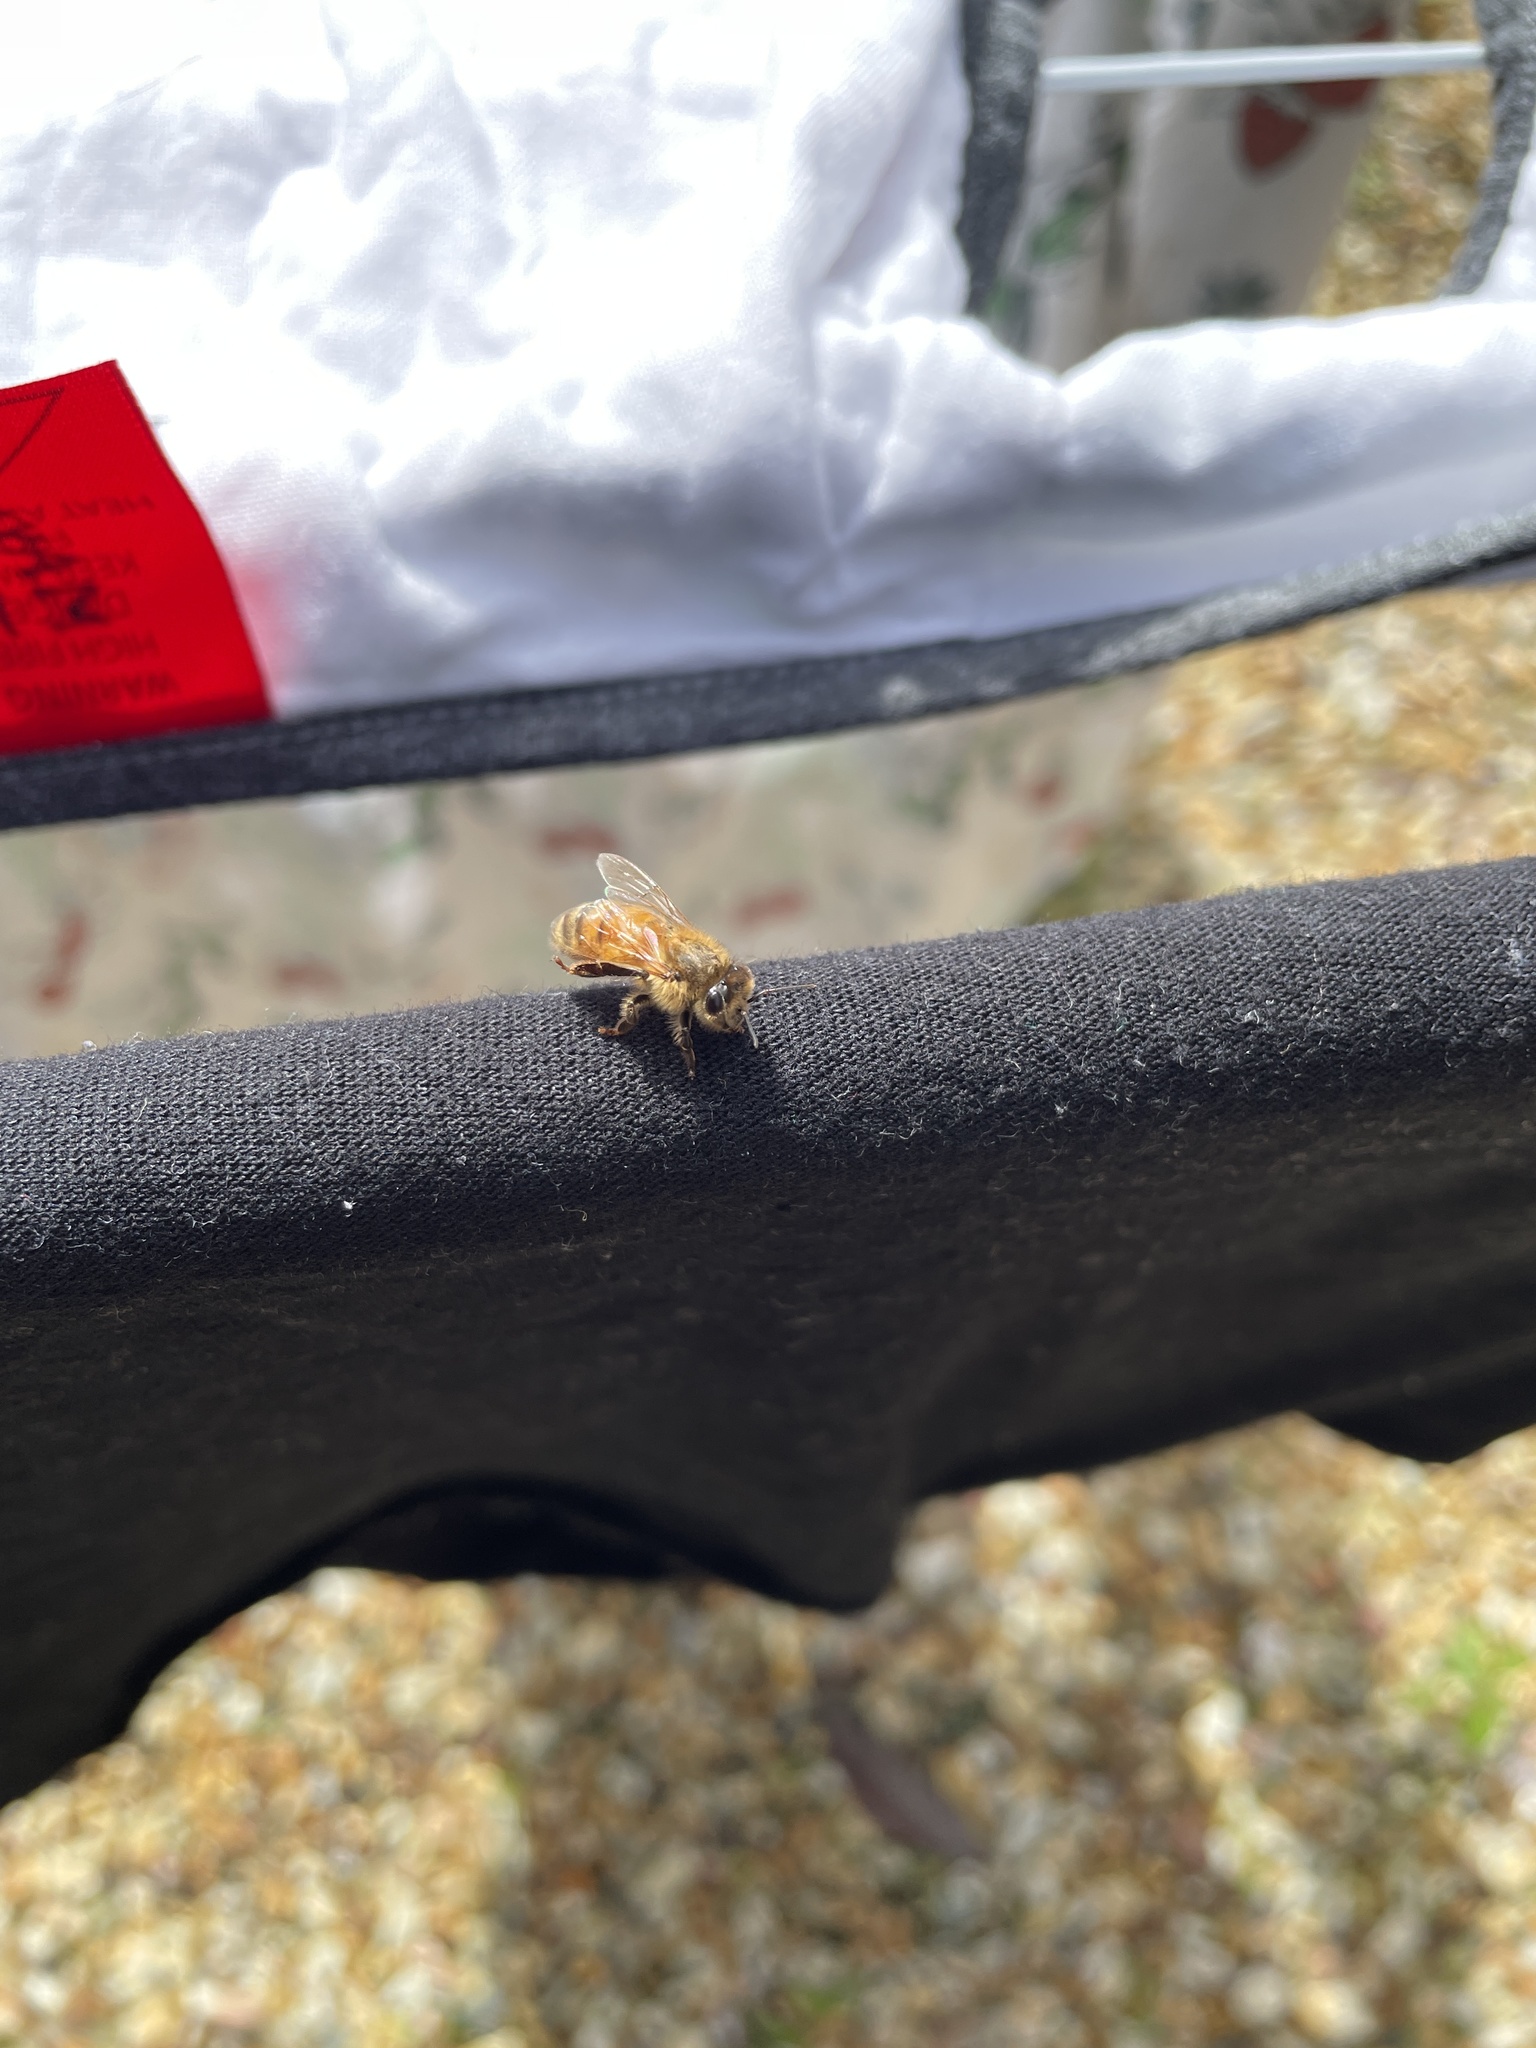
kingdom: Animalia
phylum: Arthropoda
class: Insecta
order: Hymenoptera
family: Apidae
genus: Apis
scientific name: Apis mellifera
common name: Honey bee
